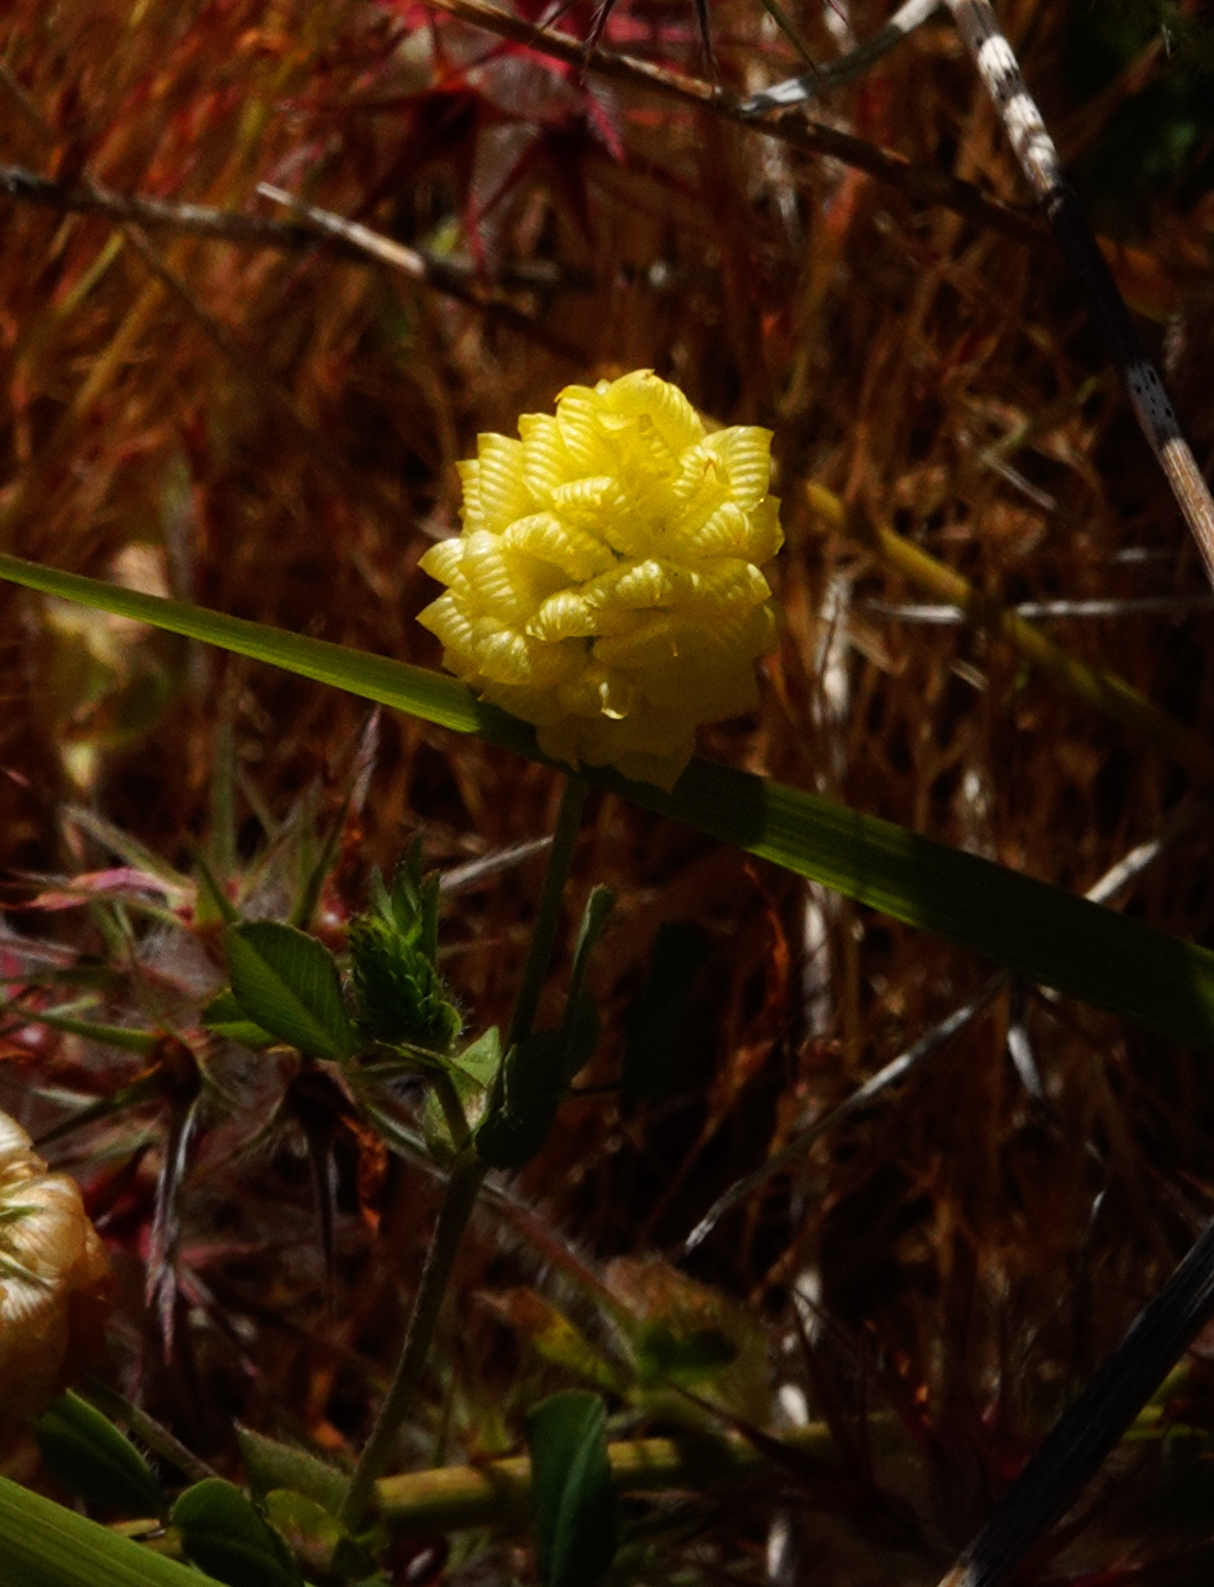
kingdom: Plantae
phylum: Tracheophyta
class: Magnoliopsida
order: Fabales
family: Fabaceae
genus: Trifolium
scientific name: Trifolium campestre
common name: Field clover
